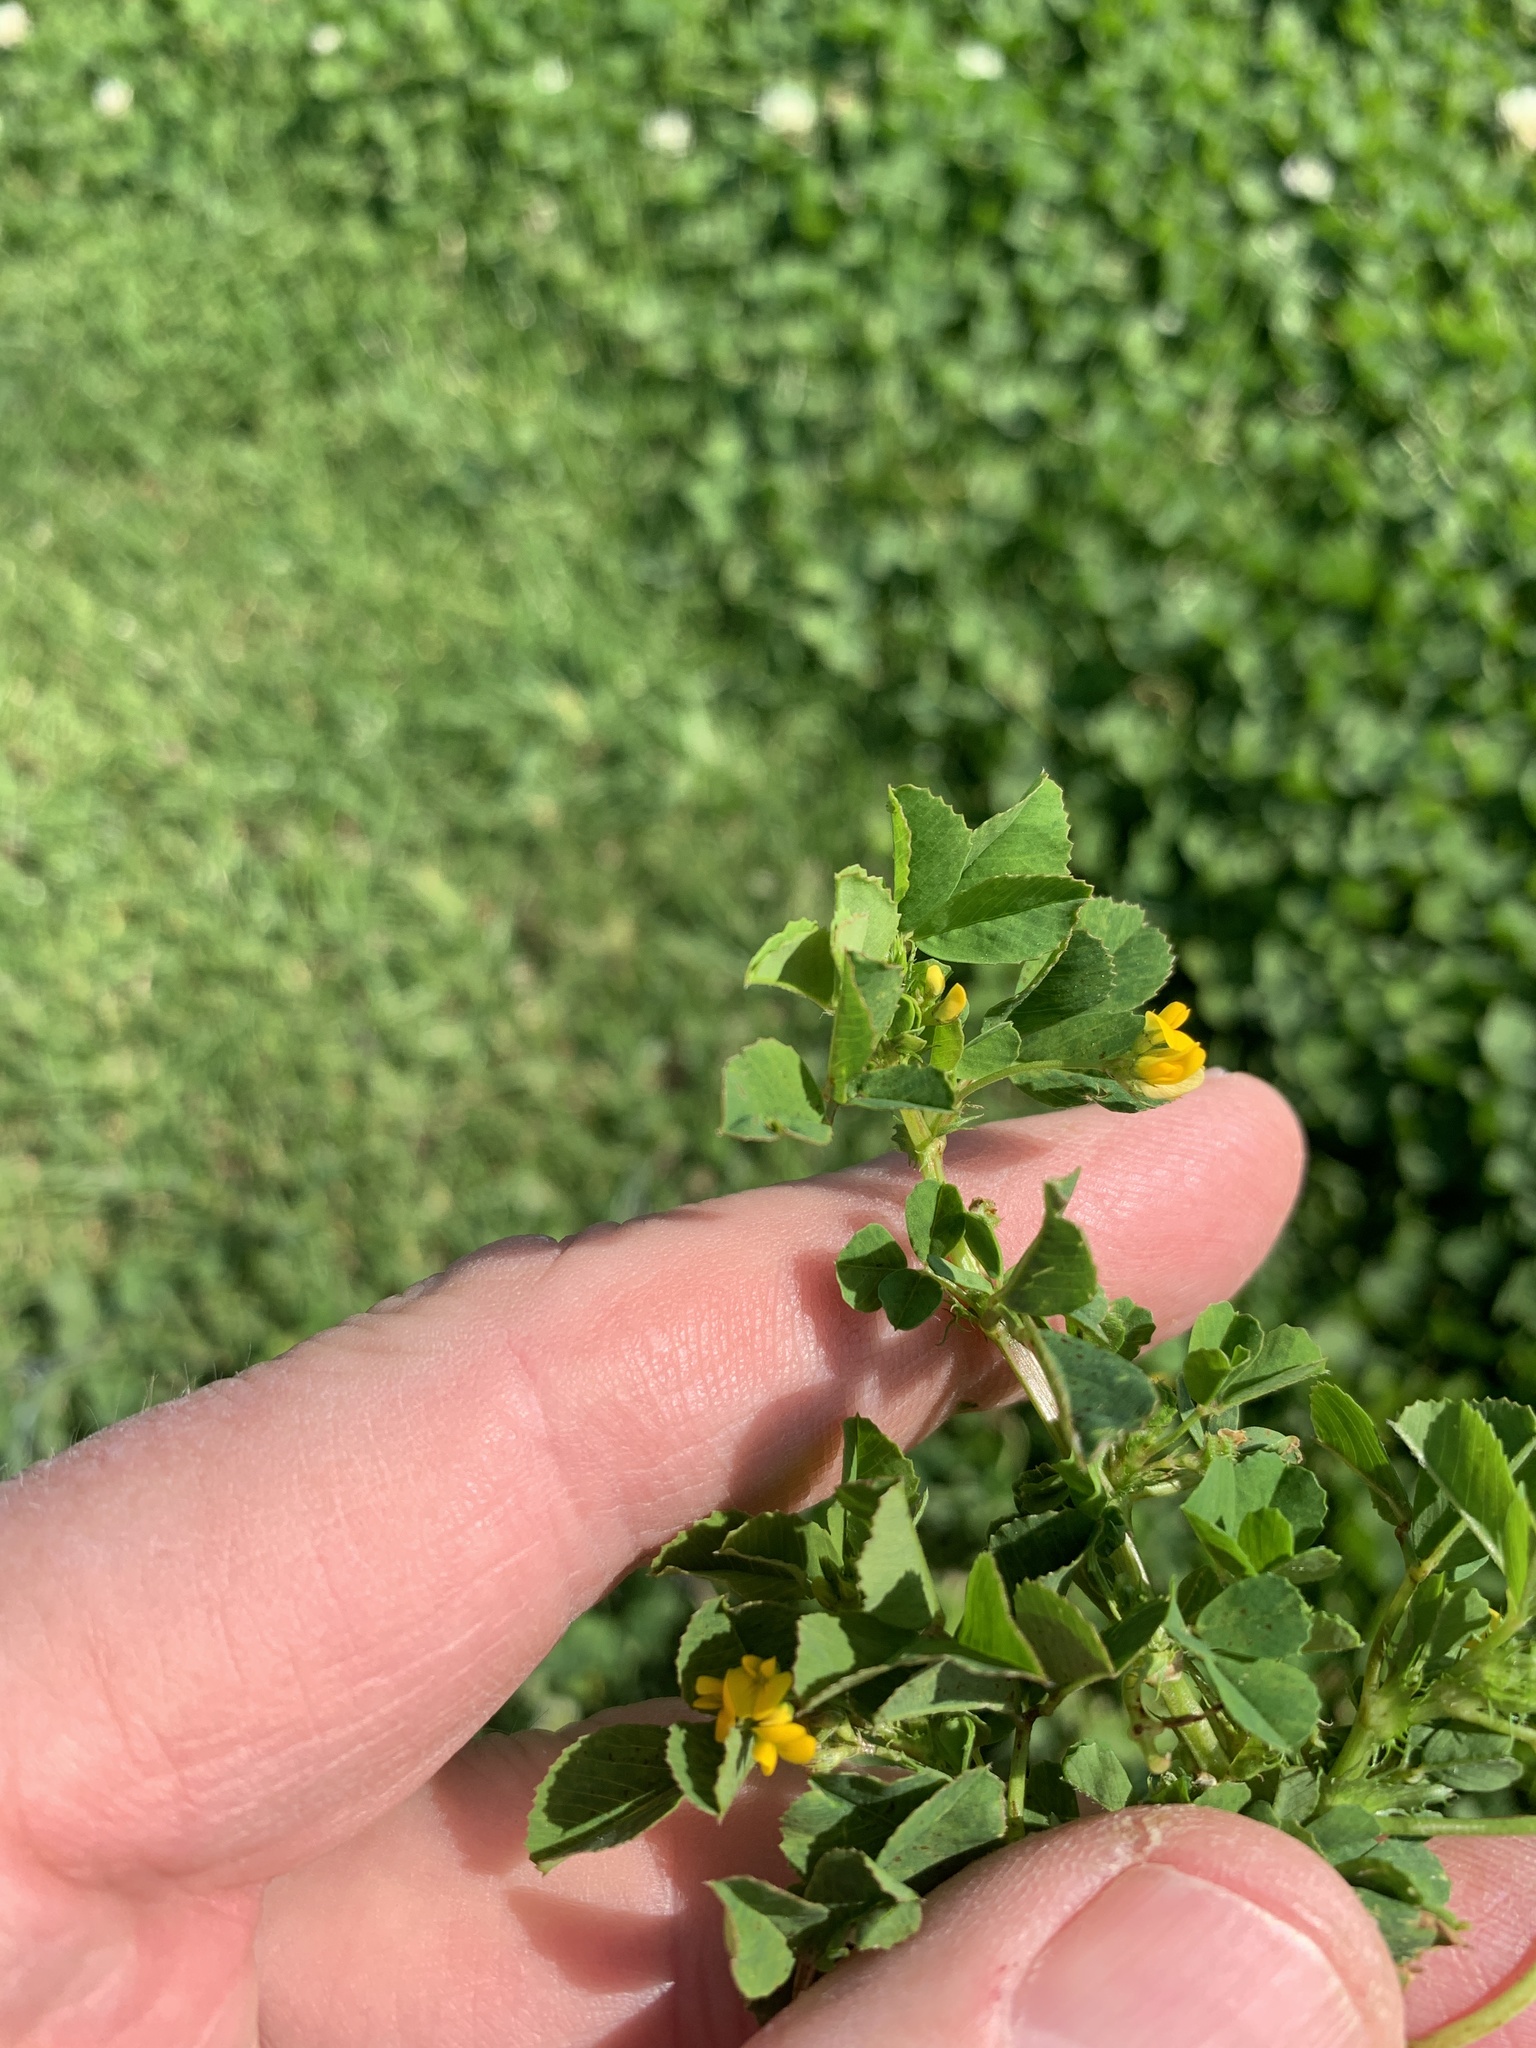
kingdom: Plantae
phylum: Tracheophyta
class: Magnoliopsida
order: Fabales
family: Fabaceae
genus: Medicago
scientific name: Medicago polymorpha
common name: Burclover
